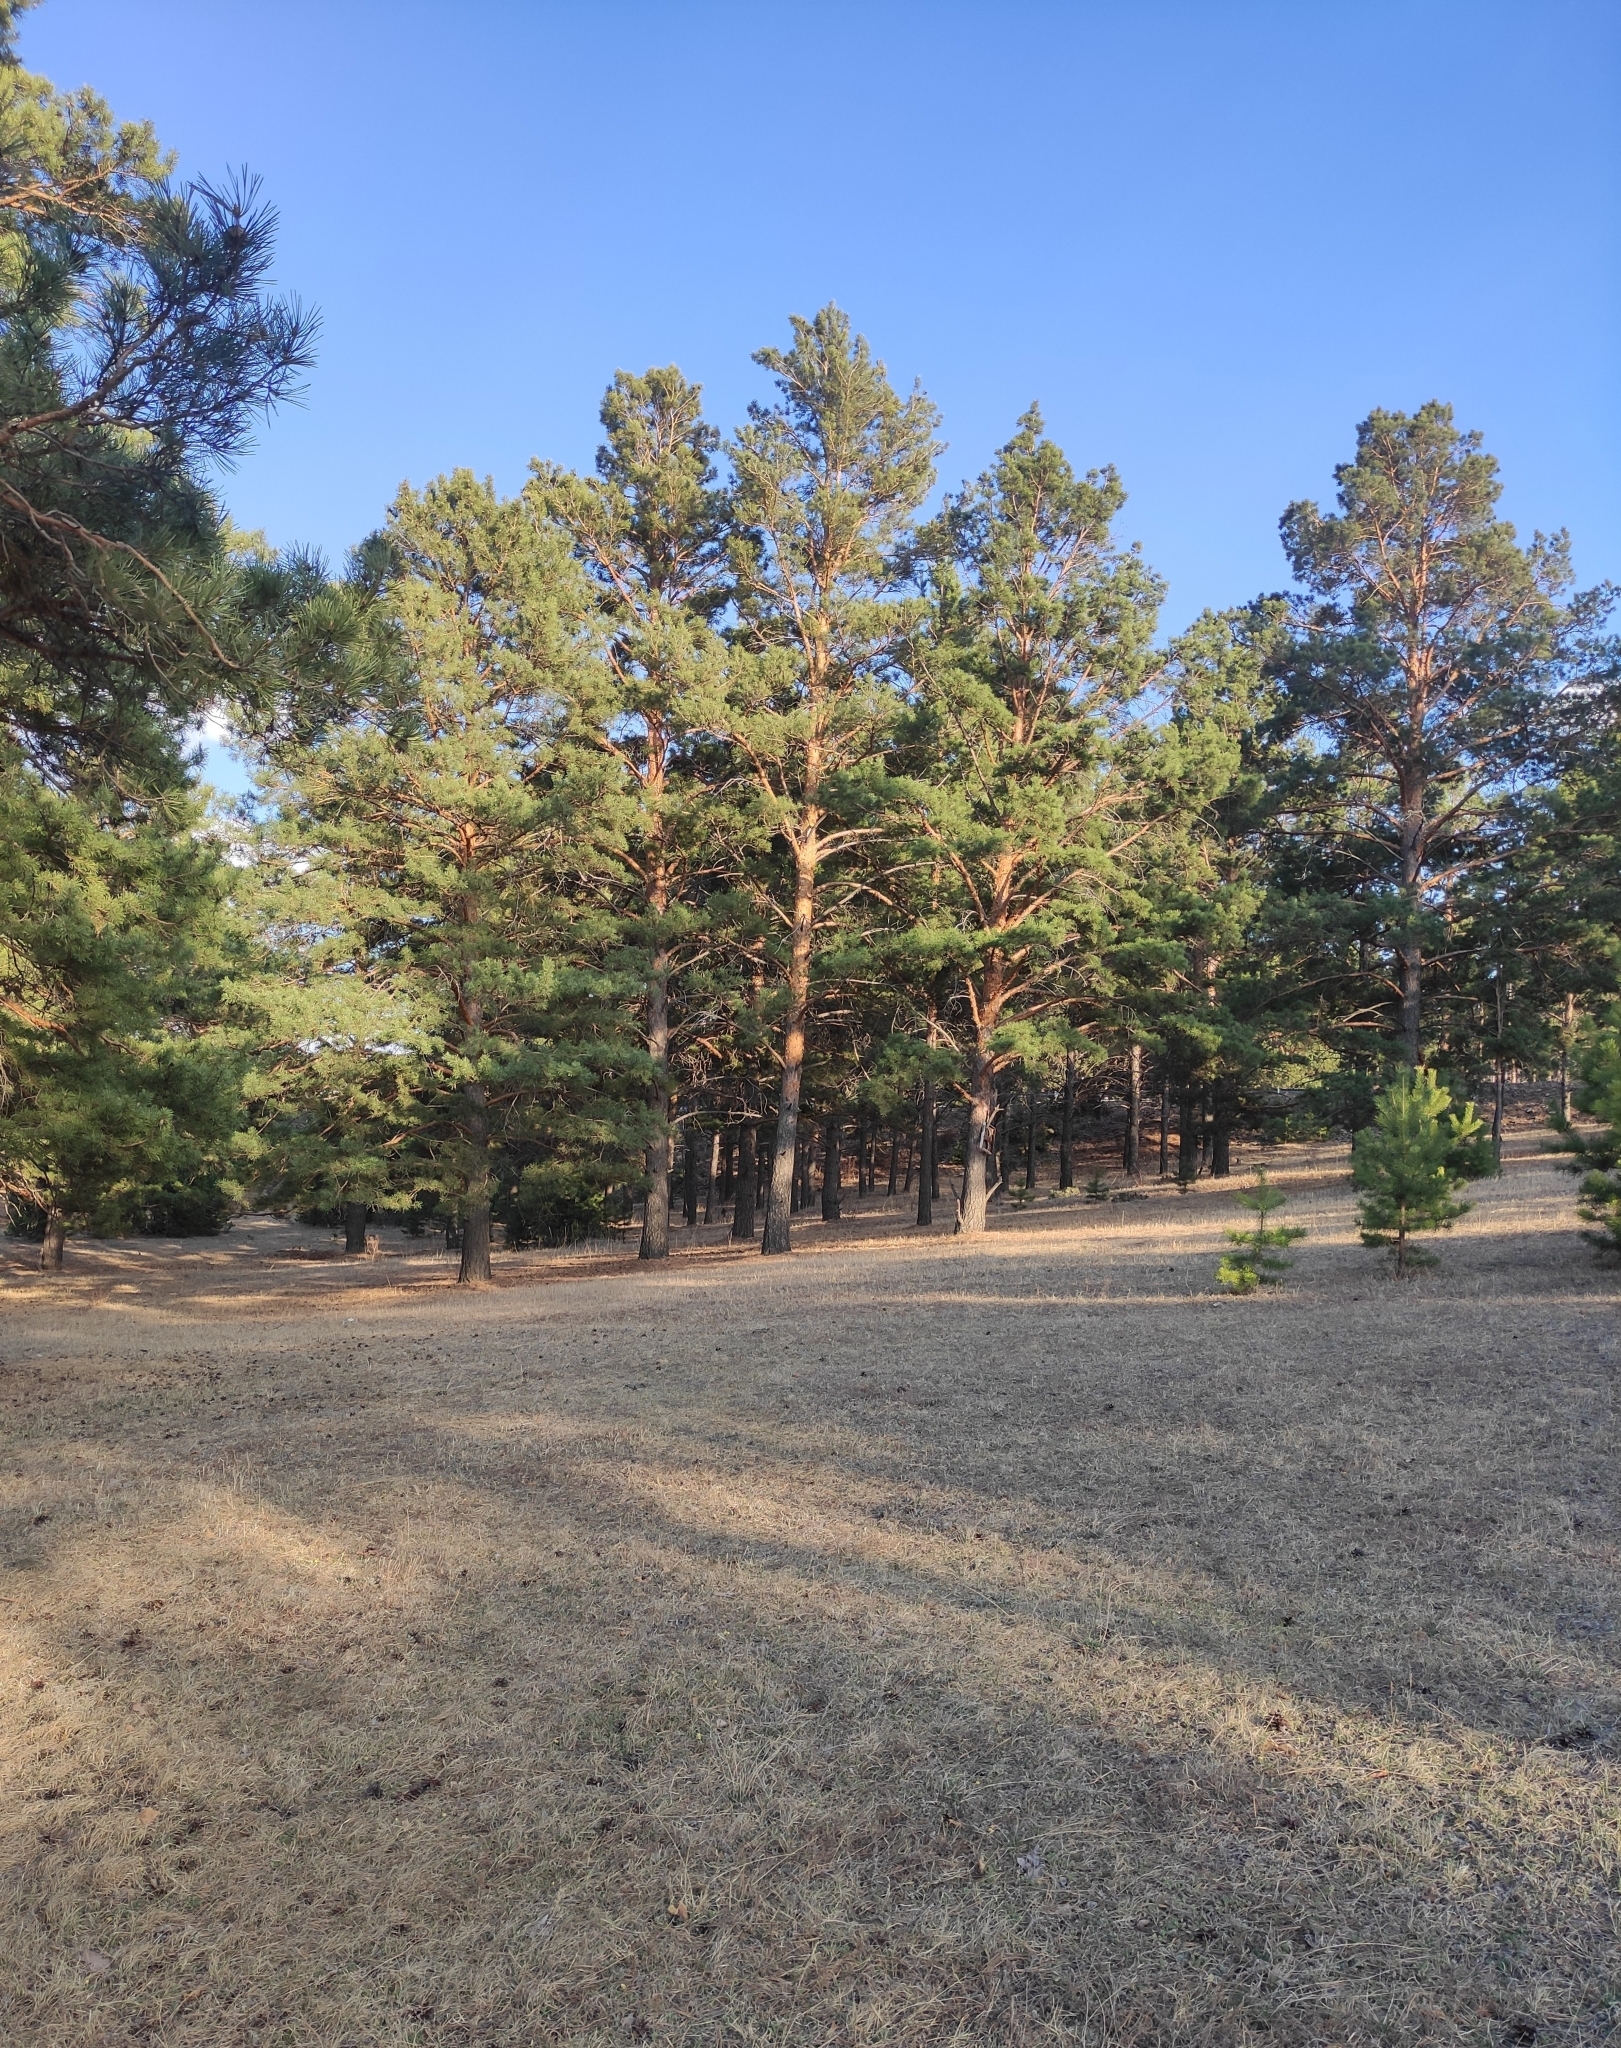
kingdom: Plantae
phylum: Tracheophyta
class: Pinopsida
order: Pinales
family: Pinaceae
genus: Pinus
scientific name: Pinus sylvestris
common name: Scots pine
